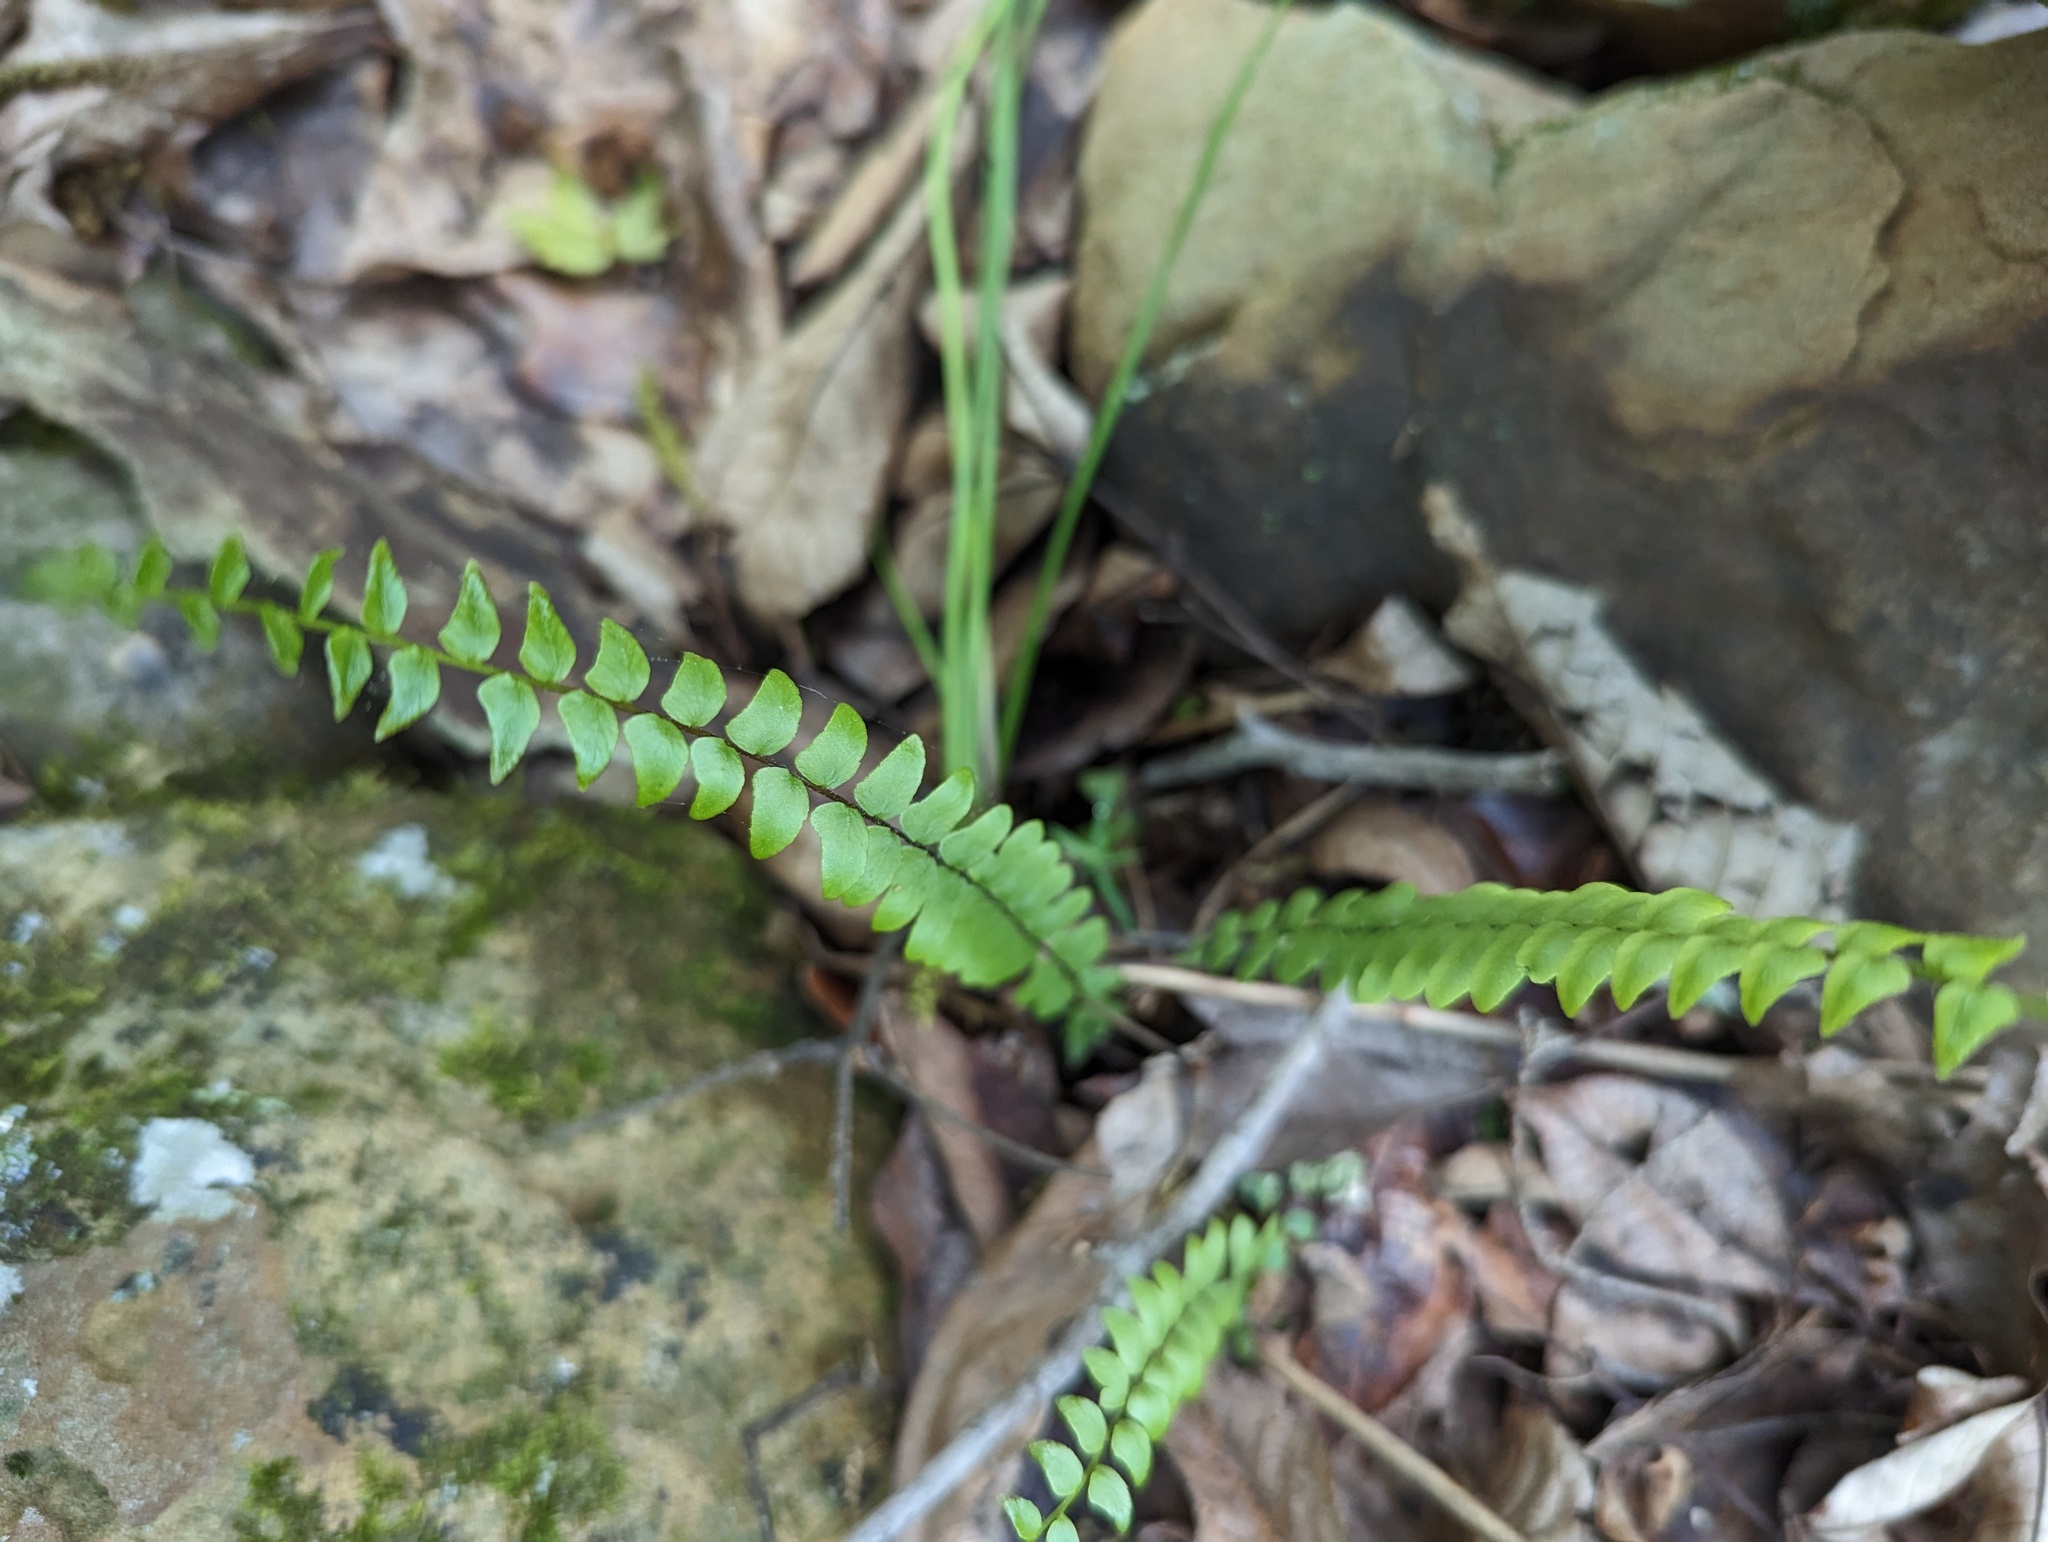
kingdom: Plantae
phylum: Tracheophyta
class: Polypodiopsida
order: Polypodiales
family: Aspleniaceae
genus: Asplenium
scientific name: Asplenium platyneuron
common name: Ebony spleenwort
